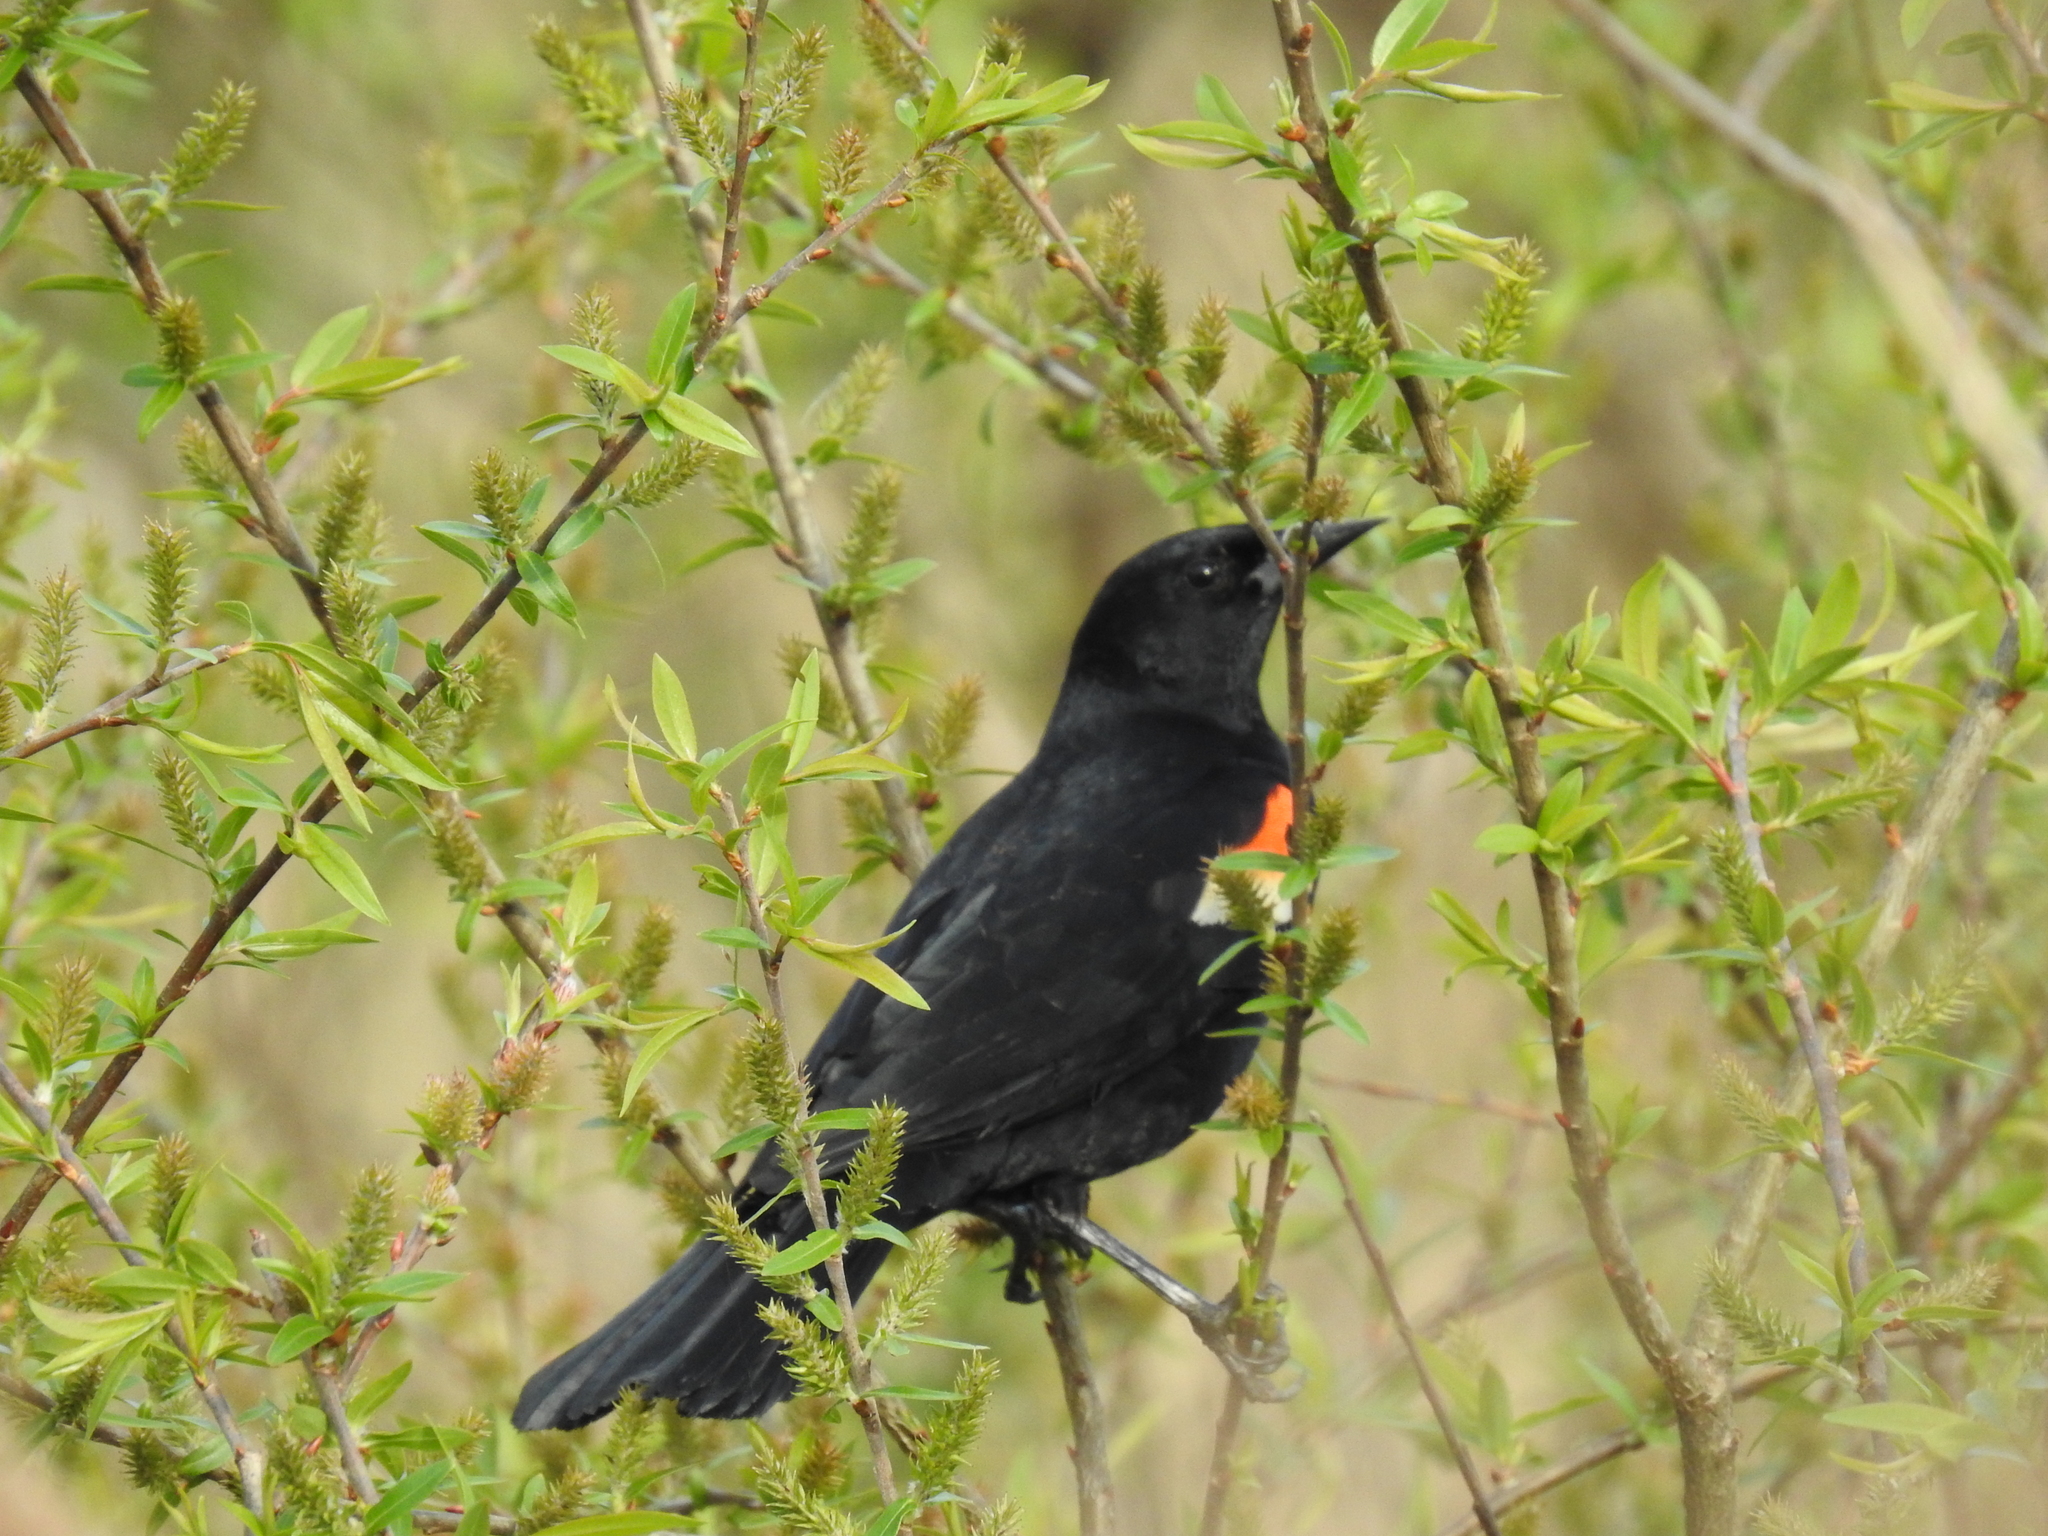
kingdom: Animalia
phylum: Chordata
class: Aves
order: Passeriformes
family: Icteridae
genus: Agelaius
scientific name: Agelaius phoeniceus
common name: Red-winged blackbird
